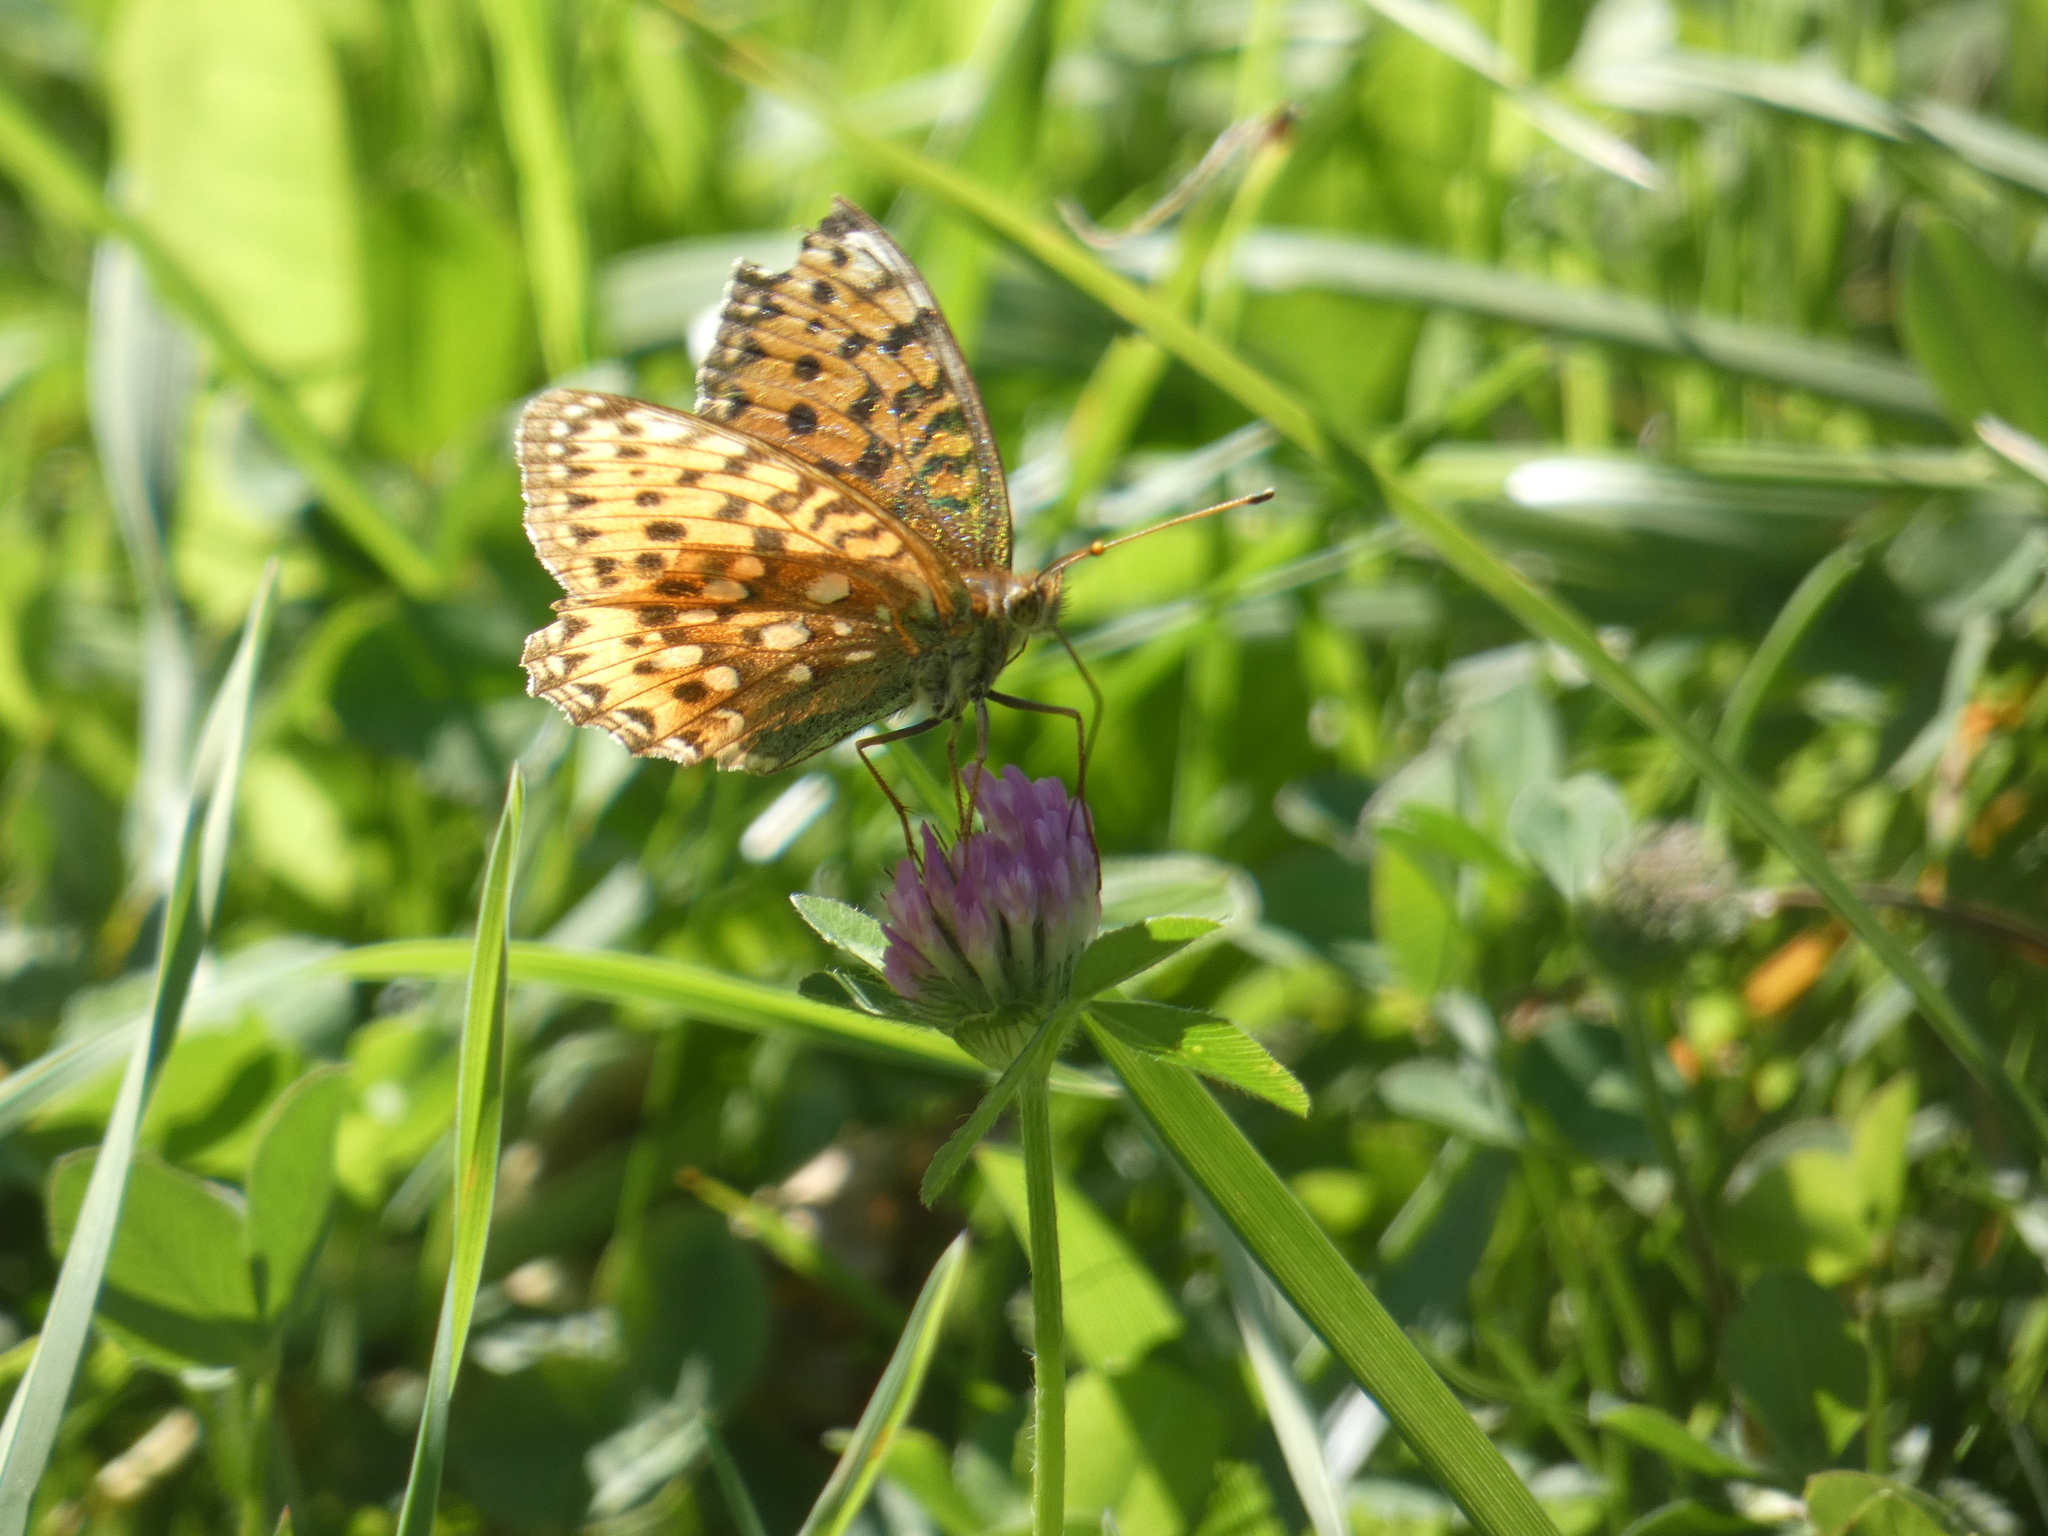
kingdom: Animalia
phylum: Arthropoda
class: Insecta
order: Lepidoptera
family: Nymphalidae
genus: Speyeria
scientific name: Speyeria aglaja
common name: Dark green fritillary
